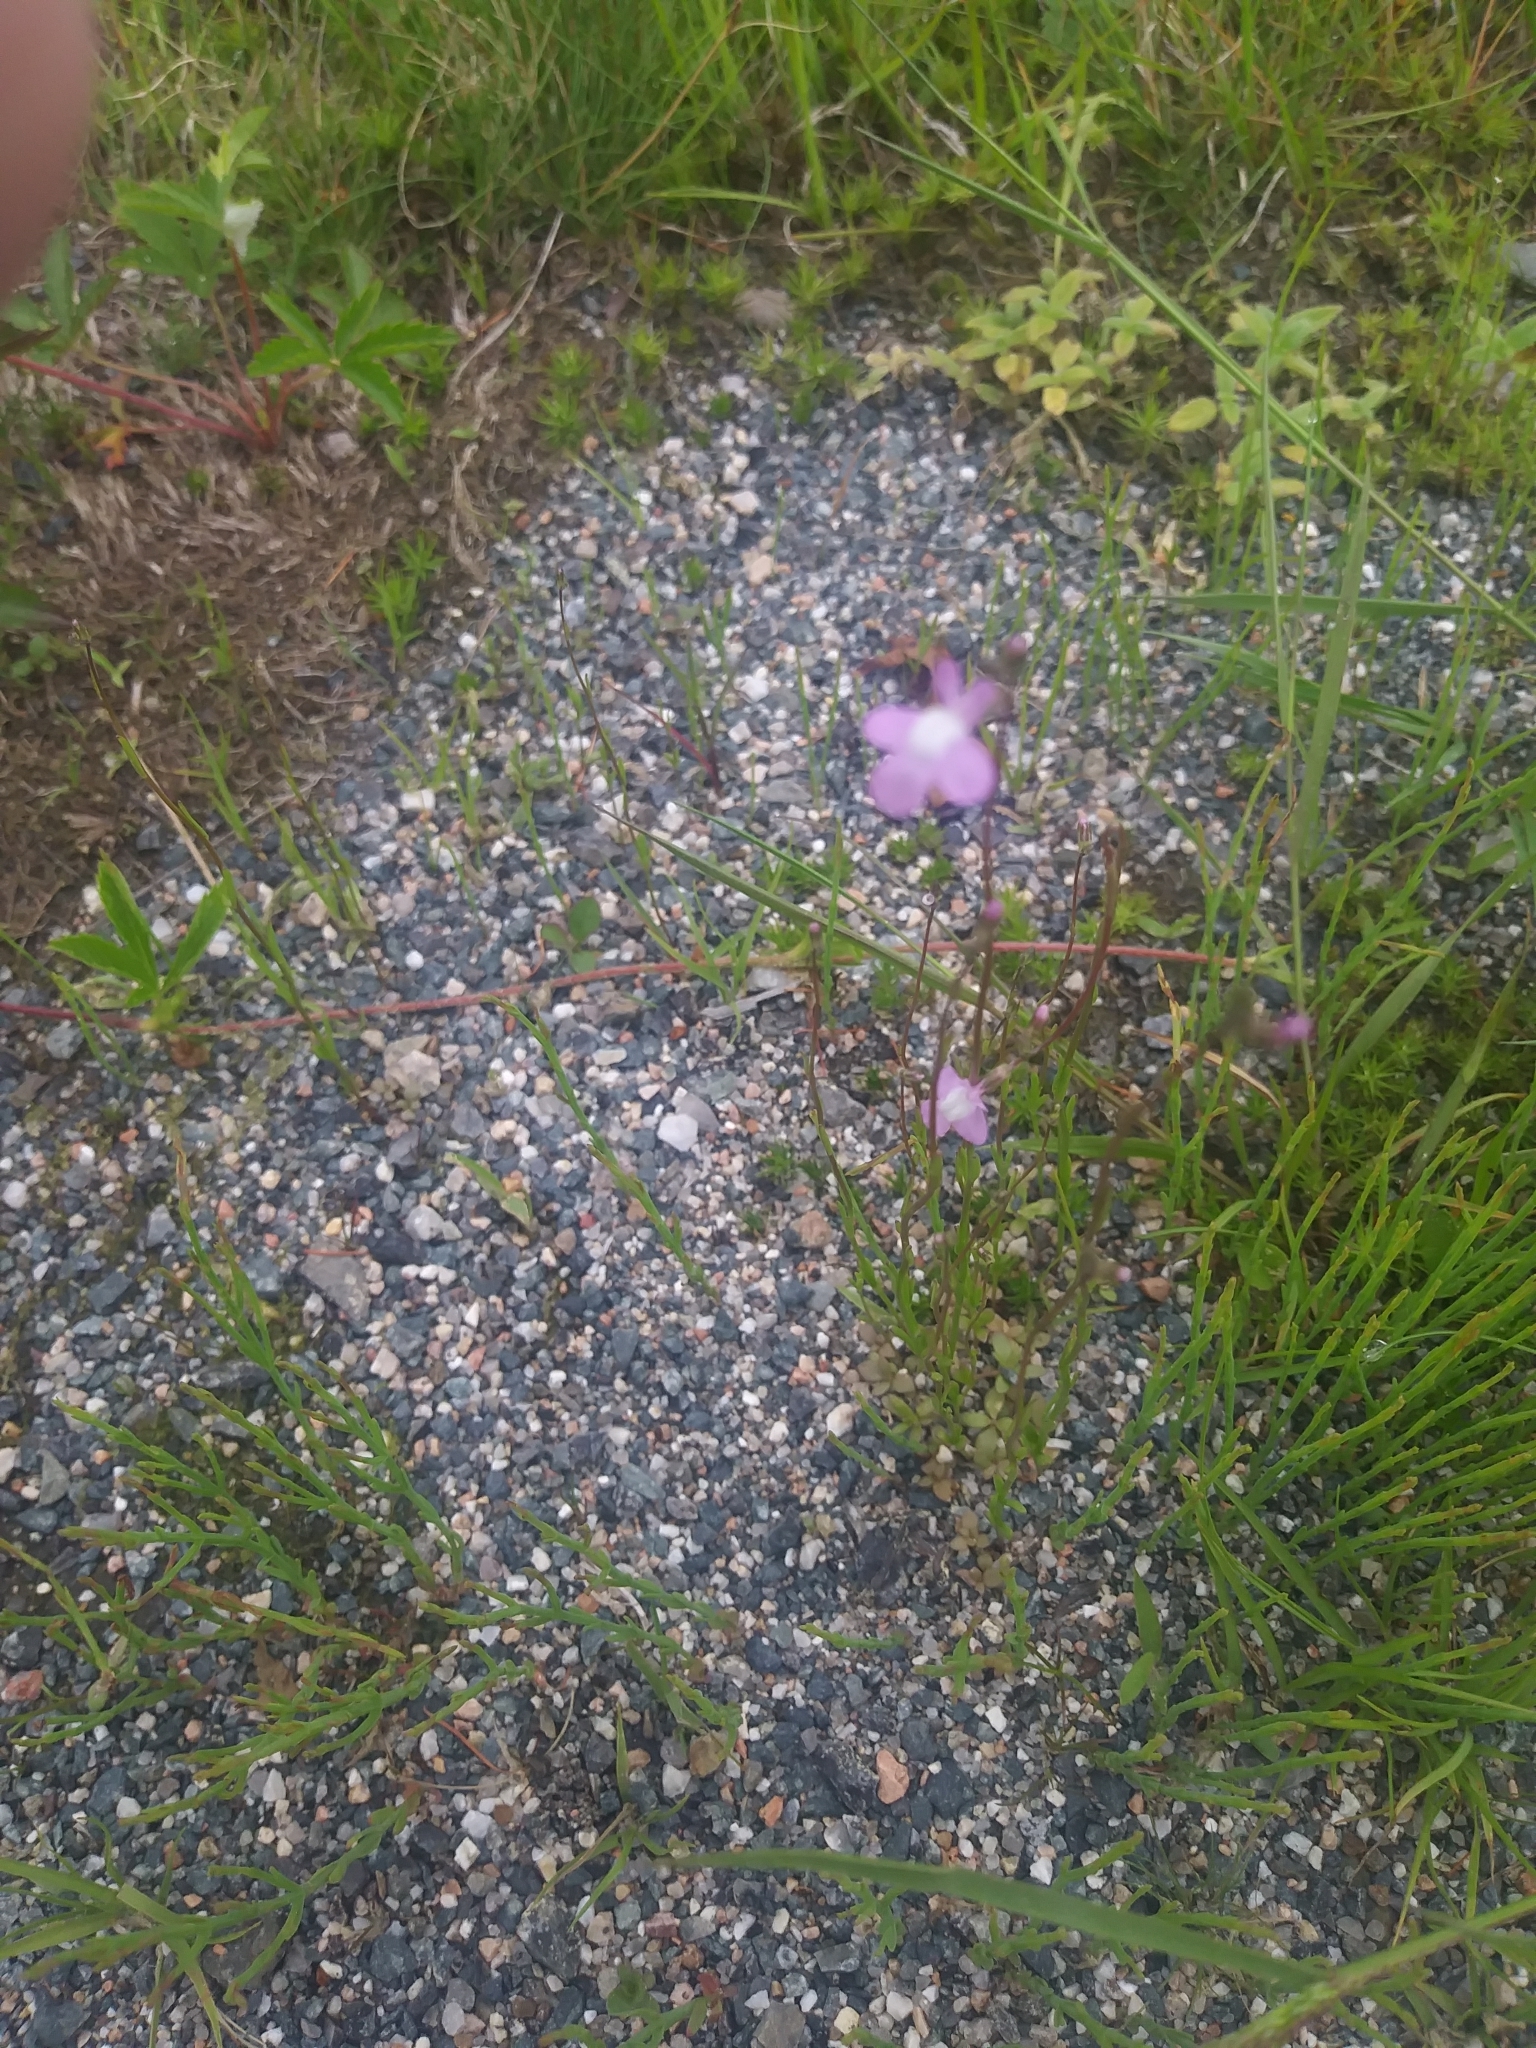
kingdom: Plantae
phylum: Tracheophyta
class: Magnoliopsida
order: Lamiales
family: Plantaginaceae
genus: Nuttallanthus
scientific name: Nuttallanthus canadensis
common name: Blue toadflax
